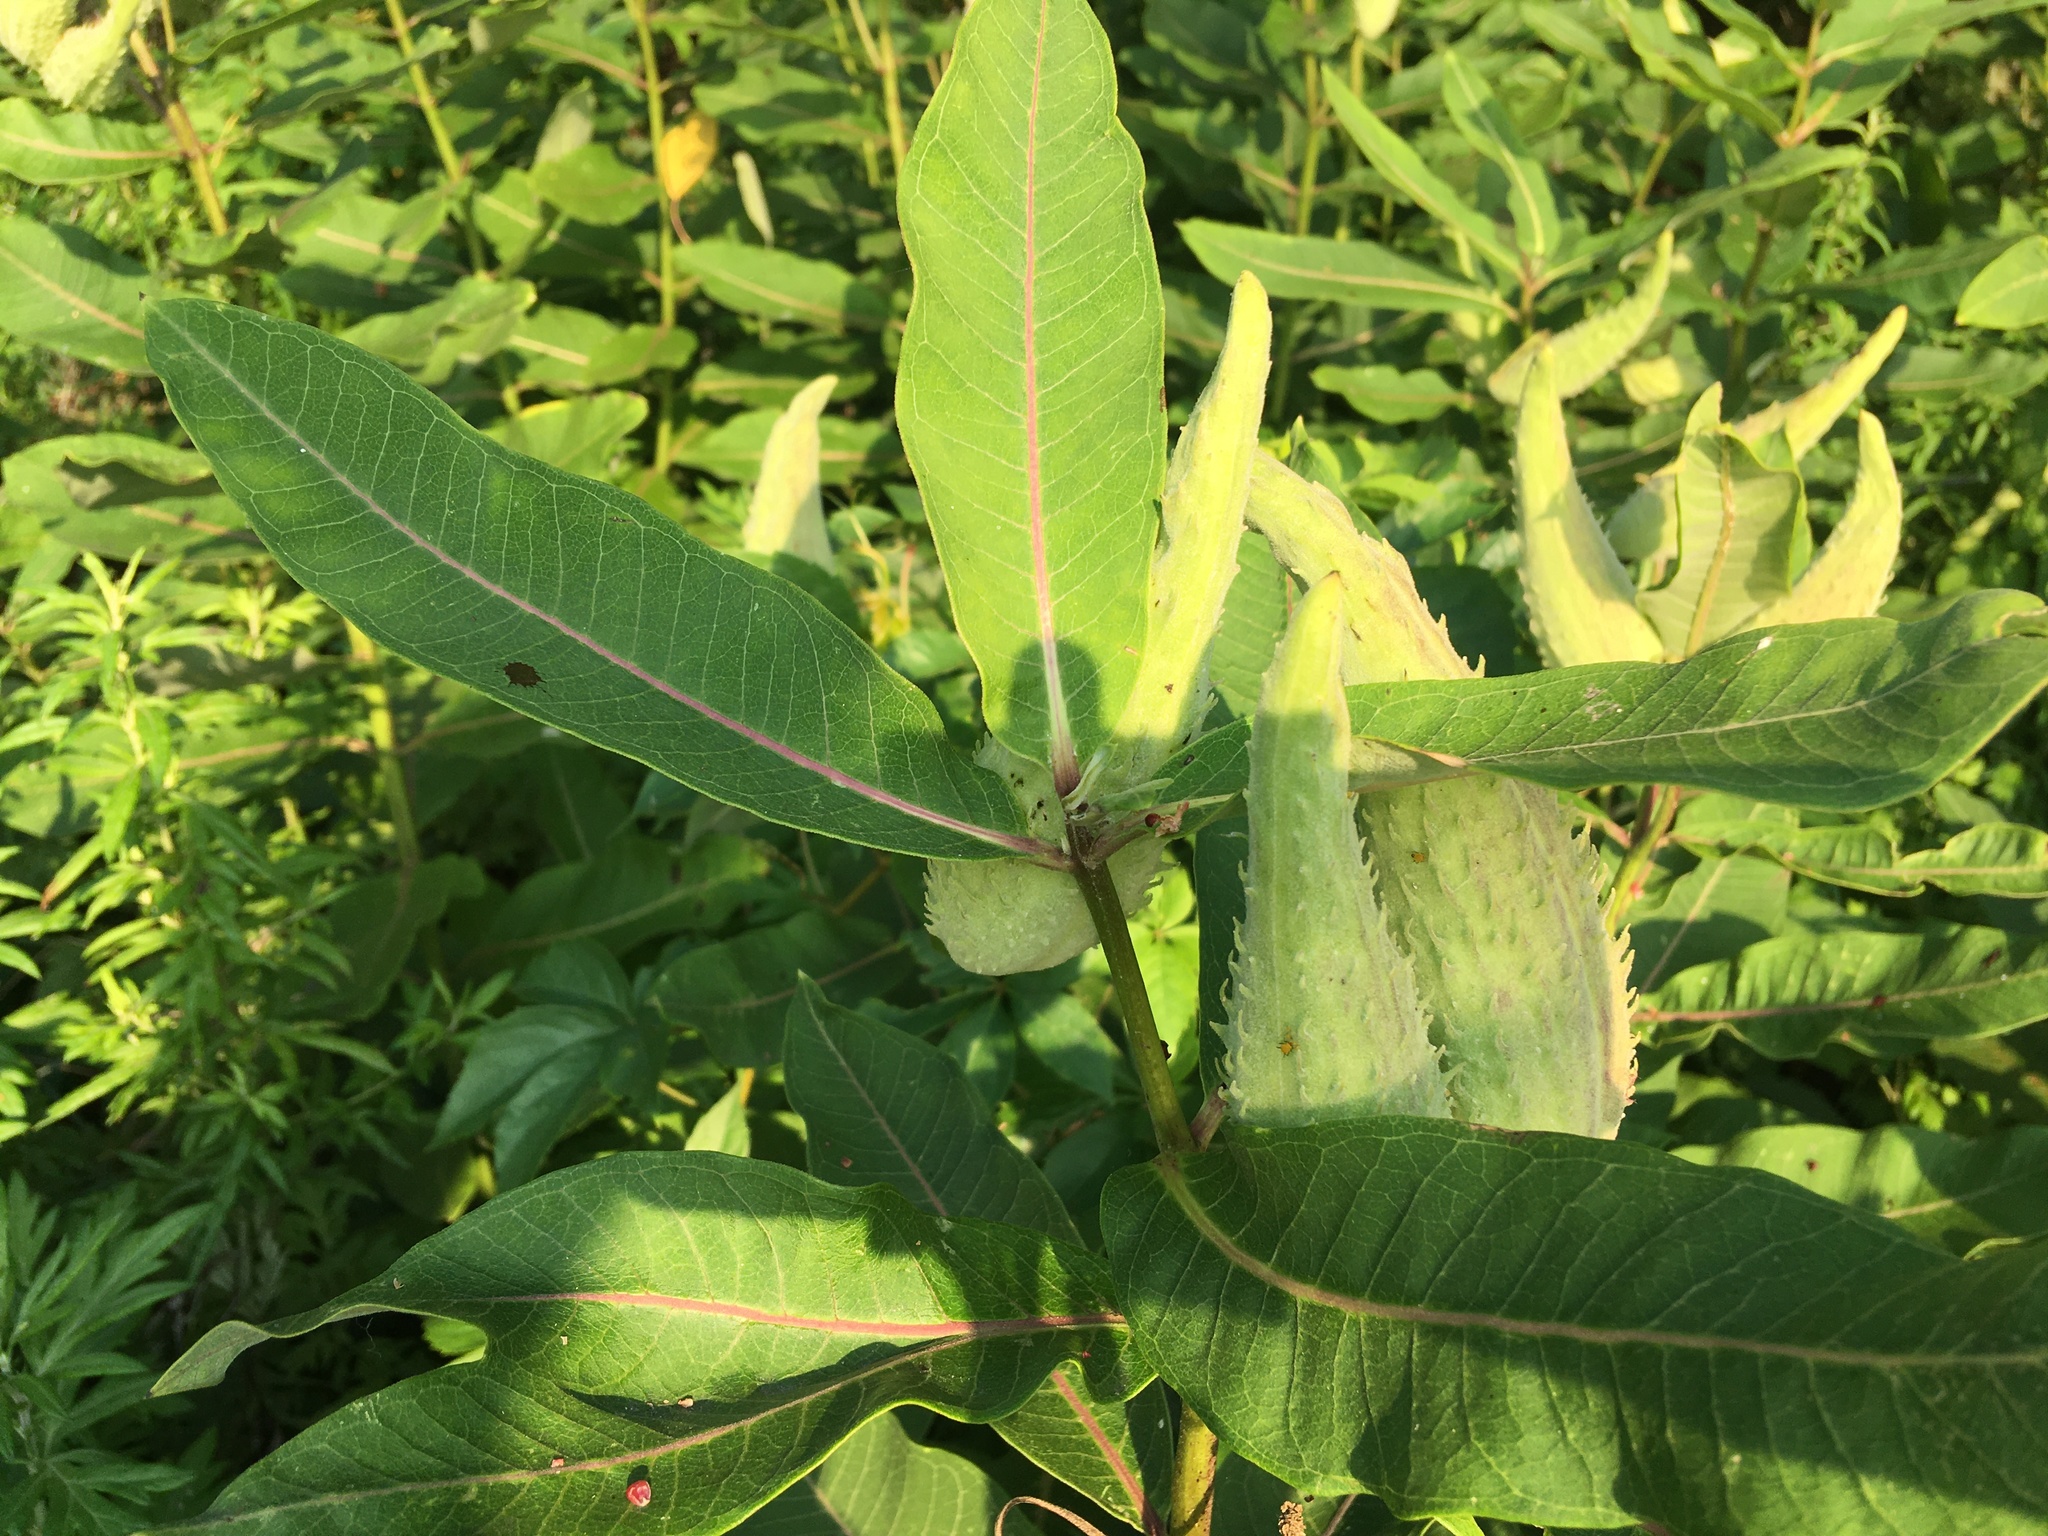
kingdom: Plantae
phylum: Tracheophyta
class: Magnoliopsida
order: Gentianales
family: Apocynaceae
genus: Asclepias
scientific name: Asclepias syriaca
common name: Common milkweed
